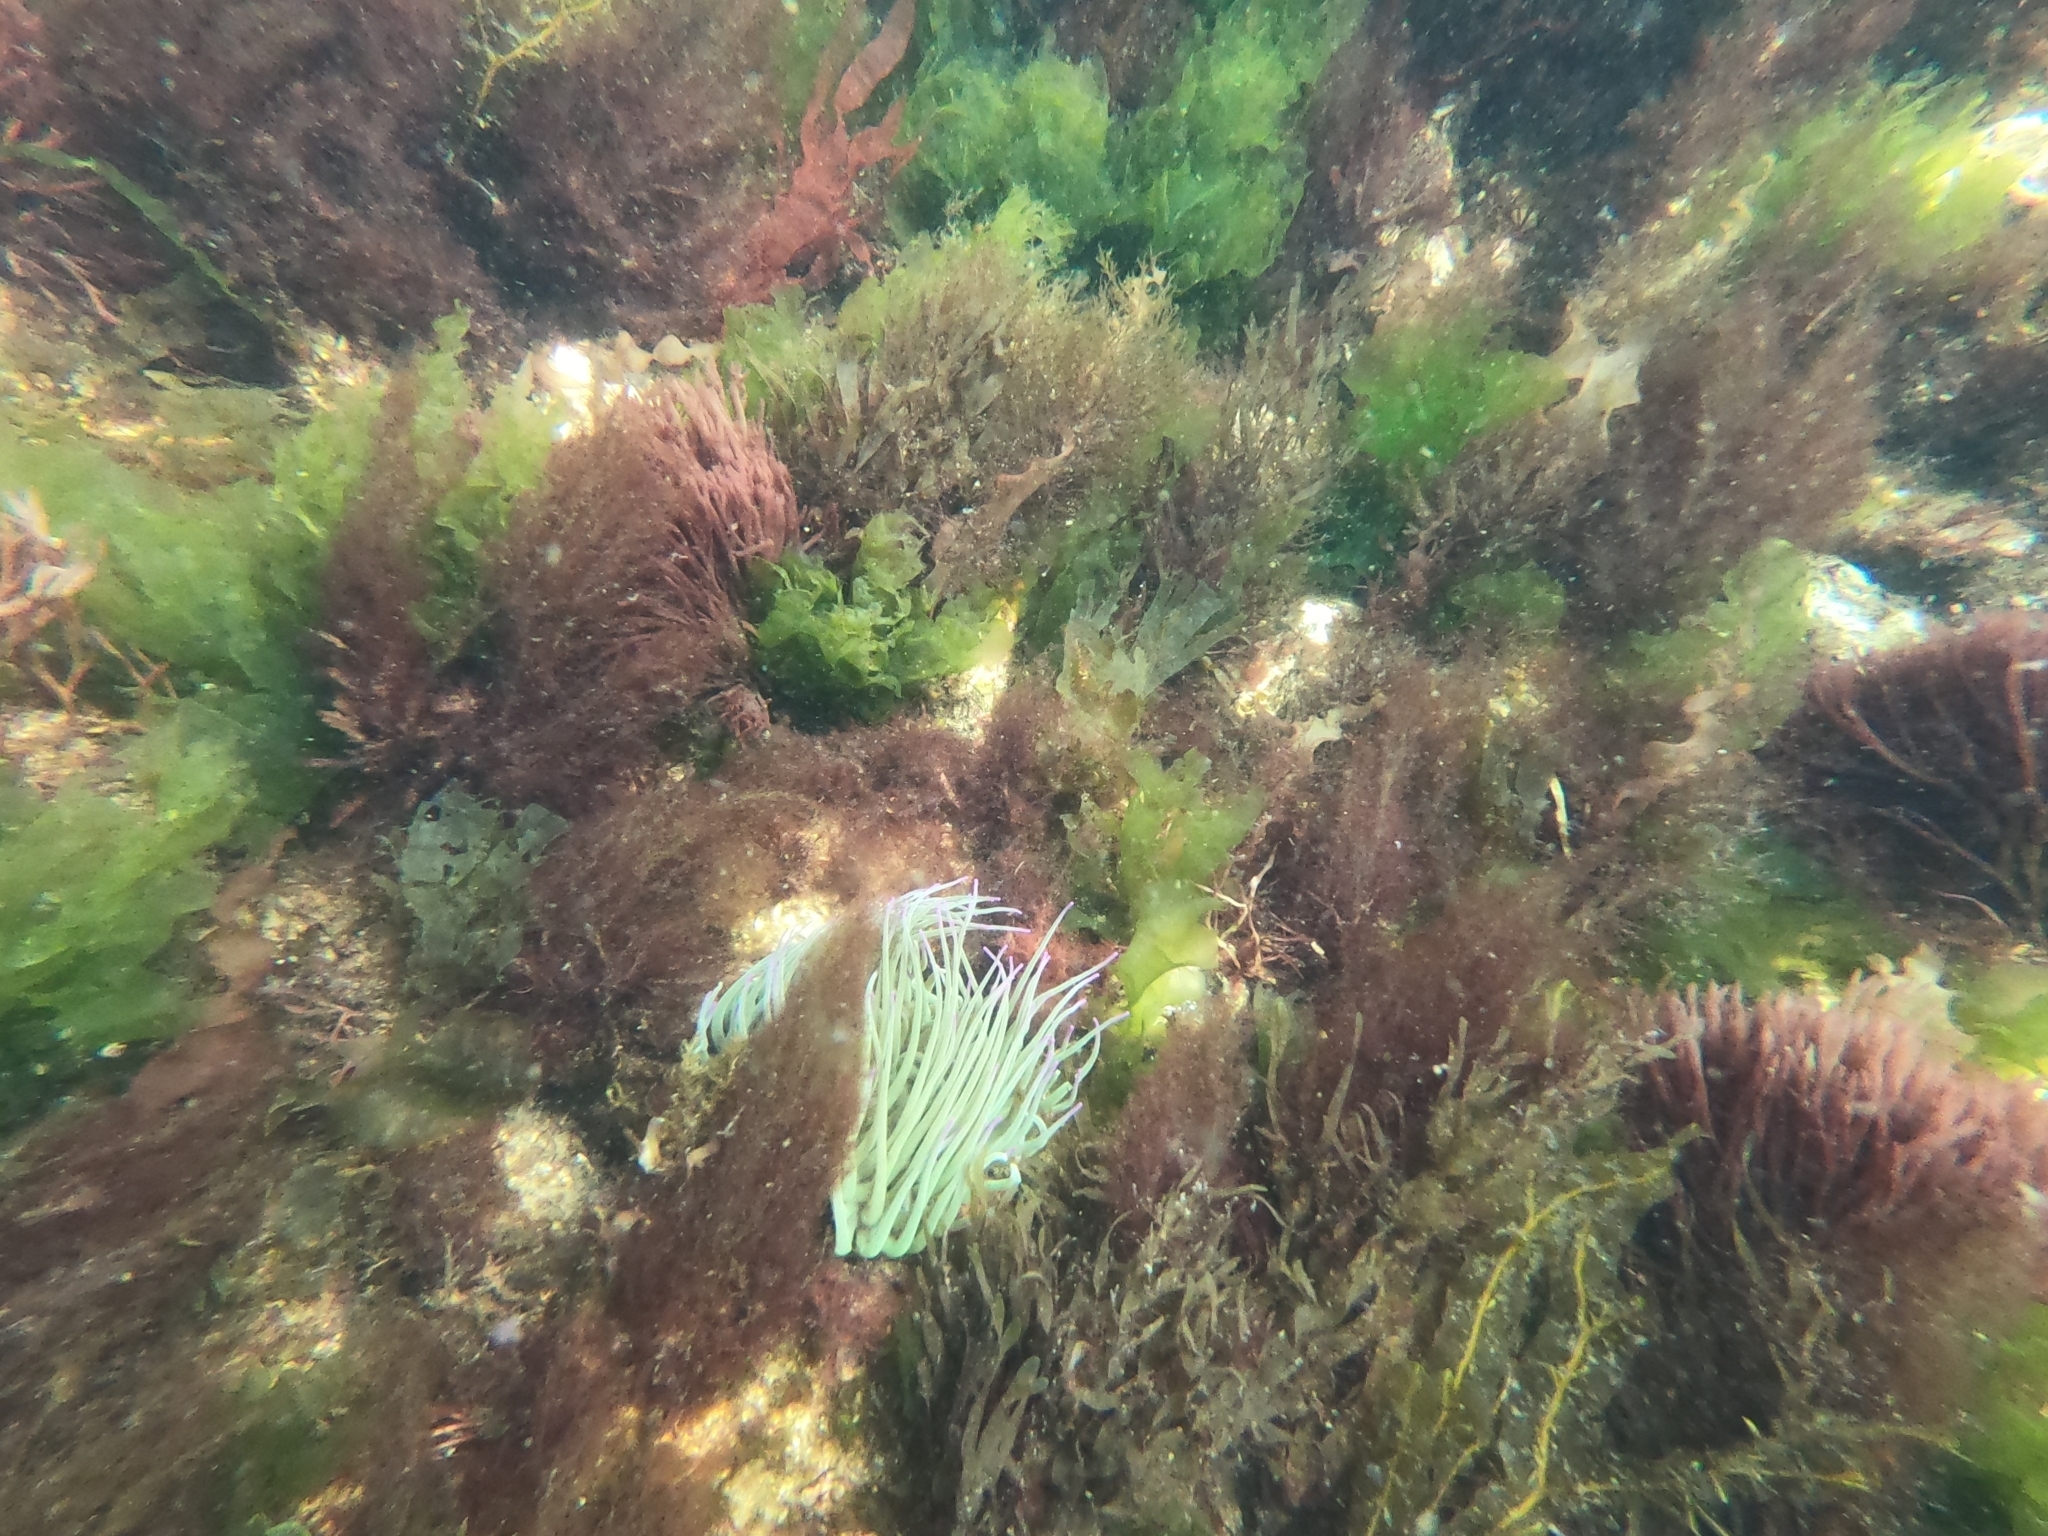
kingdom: Animalia
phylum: Cnidaria
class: Anthozoa
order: Actiniaria
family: Actiniidae
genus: Anemonia
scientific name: Anemonia viridis
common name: Snakelocks anemone
